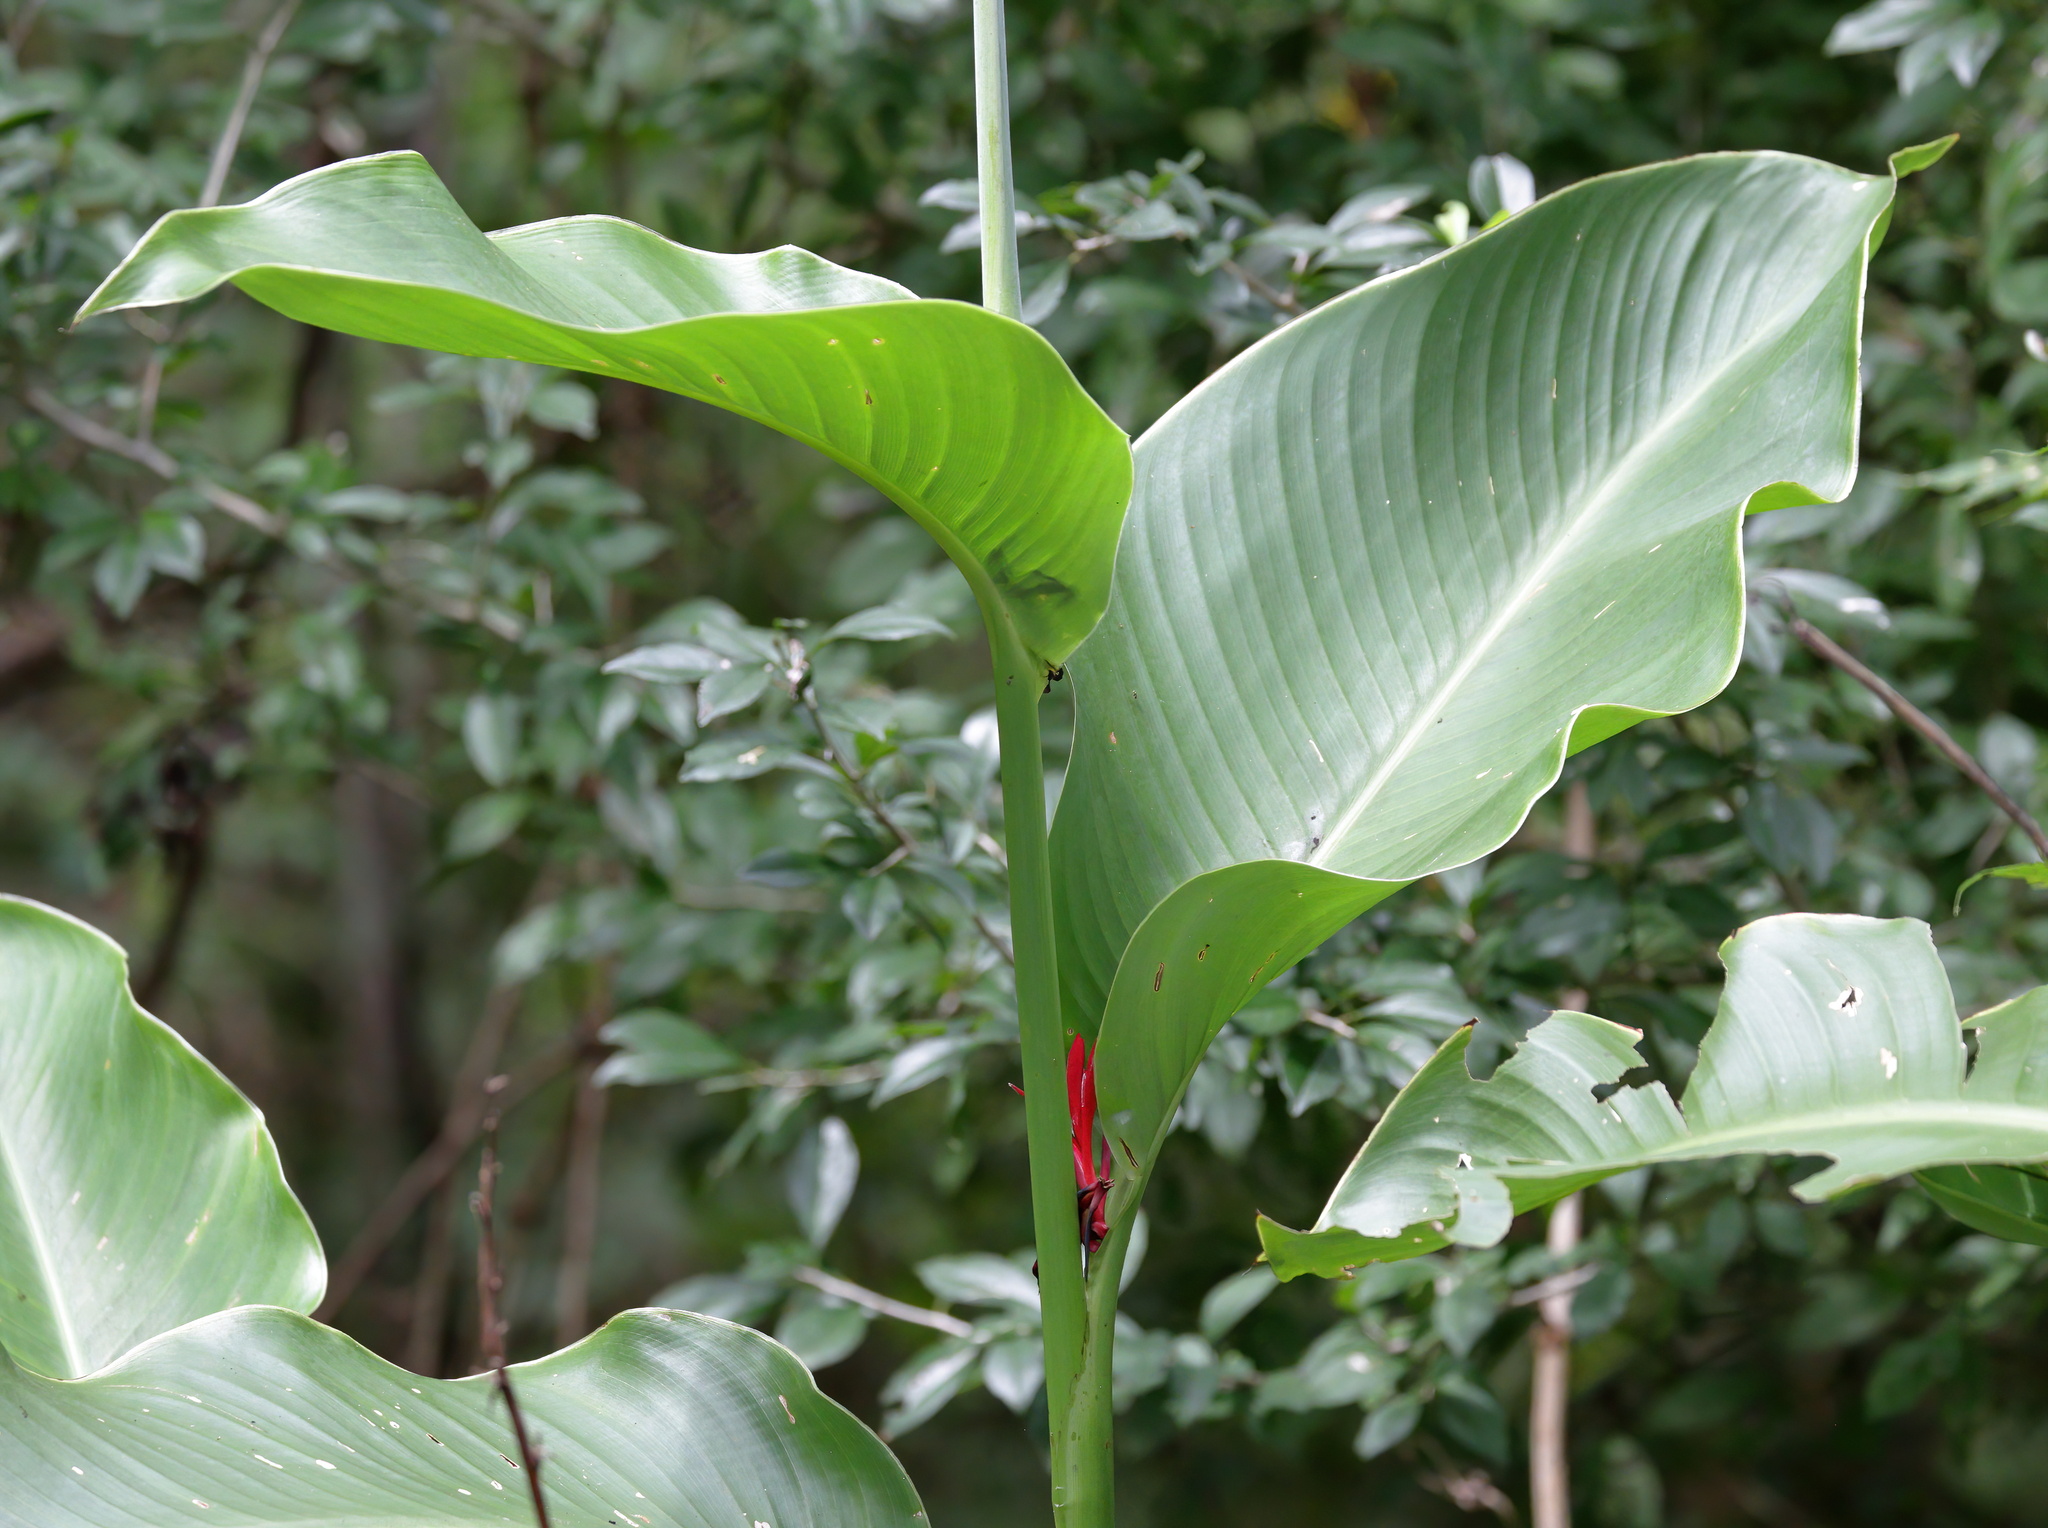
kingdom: Plantae
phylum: Tracheophyta
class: Liliopsida
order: Zingiberales
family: Cannaceae
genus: Canna
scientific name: Canna indica
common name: Indian shot
